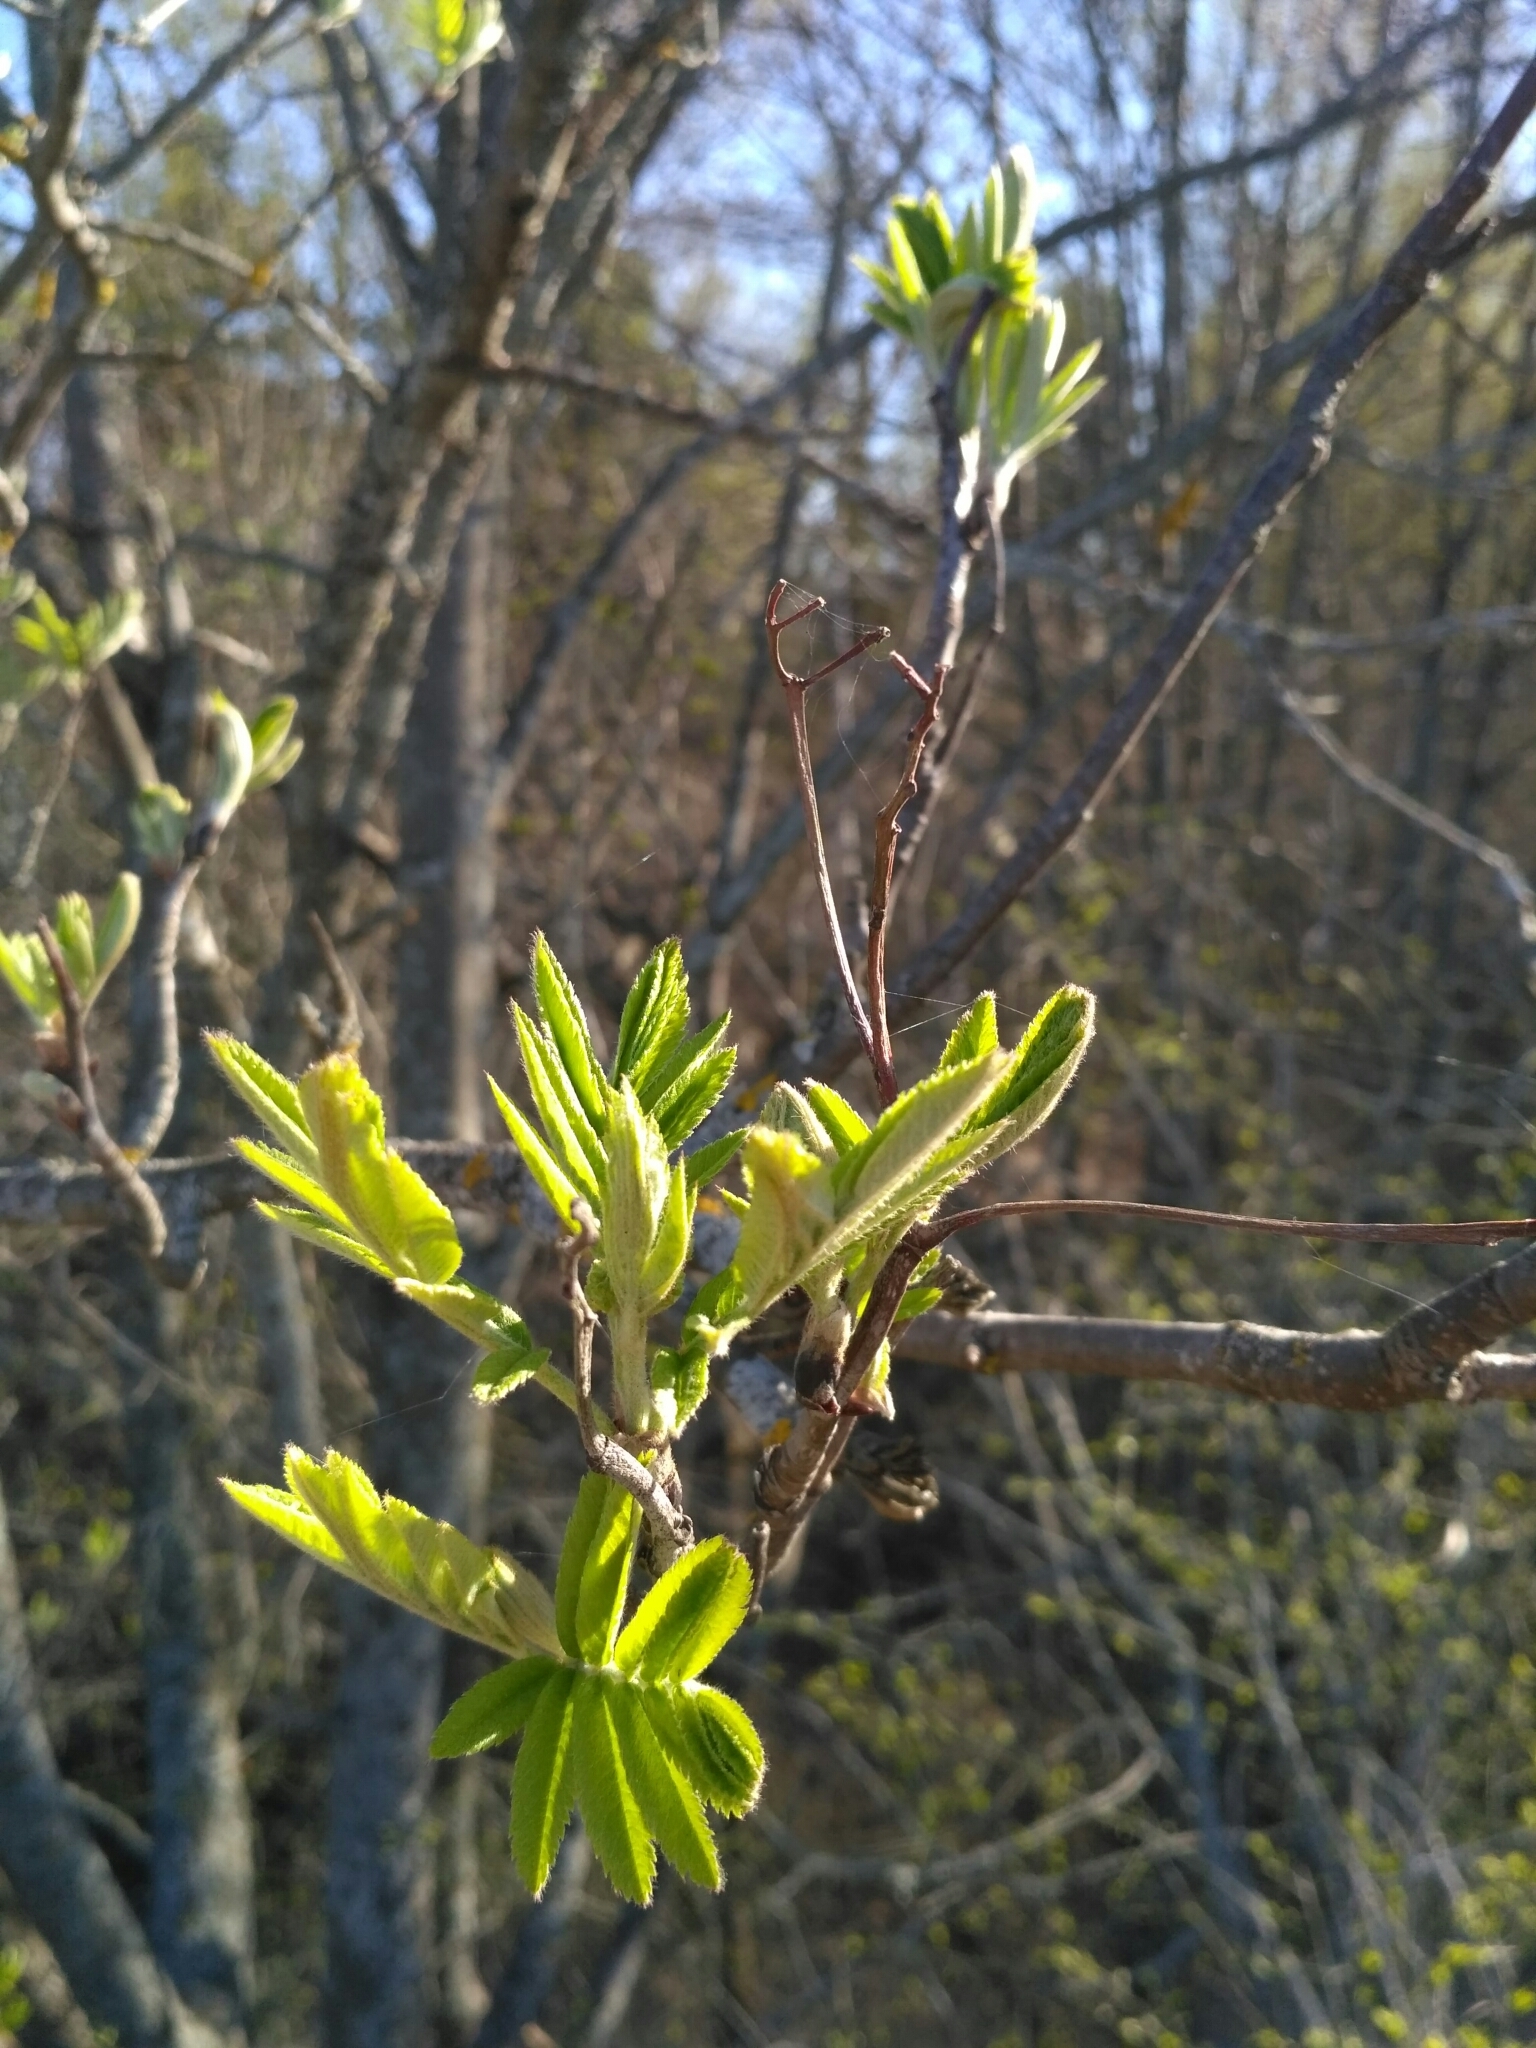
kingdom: Plantae
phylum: Tracheophyta
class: Magnoliopsida
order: Rosales
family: Rosaceae
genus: Sorbus
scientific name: Sorbus aucuparia
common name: Rowan
